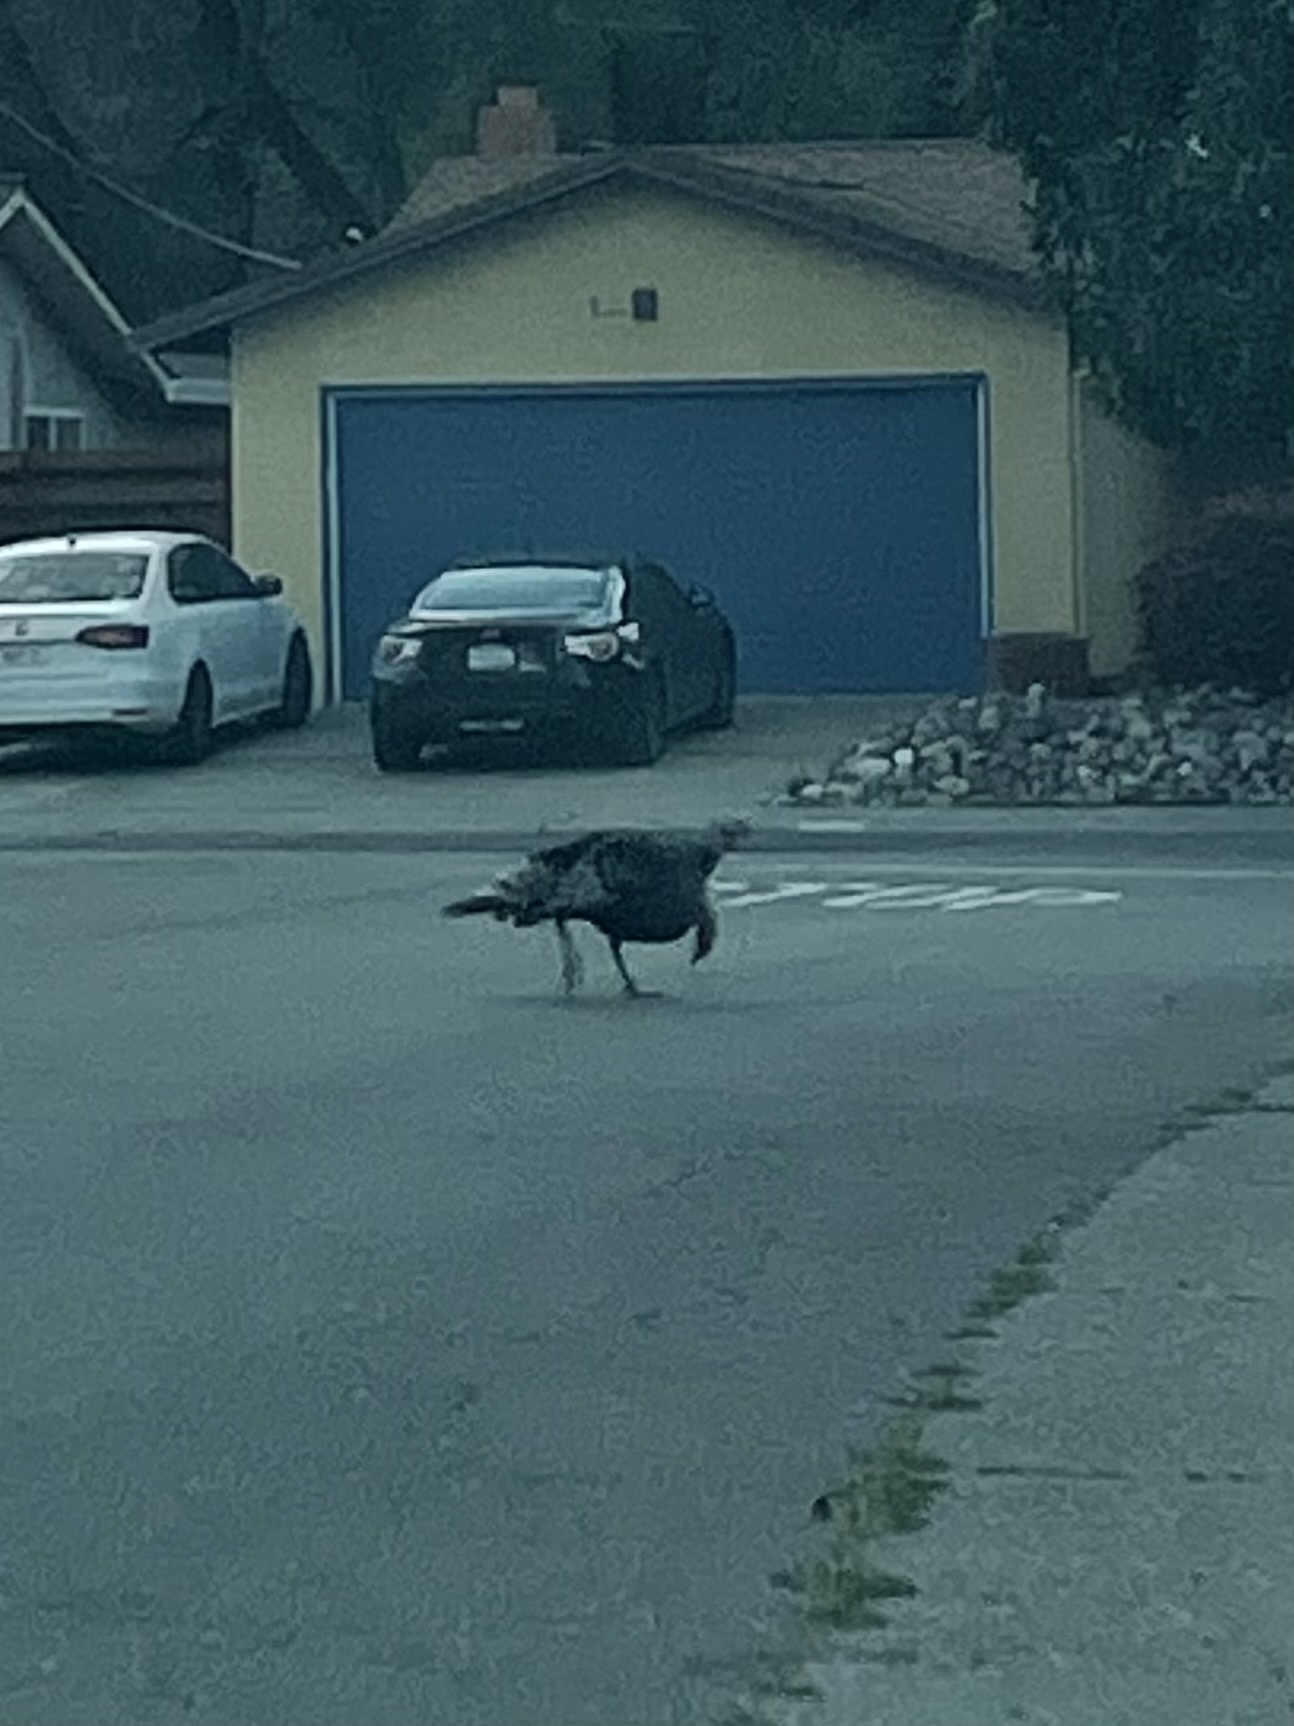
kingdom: Animalia
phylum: Chordata
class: Aves
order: Galliformes
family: Phasianidae
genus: Meleagris
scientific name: Meleagris gallopavo
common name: Wild turkey
